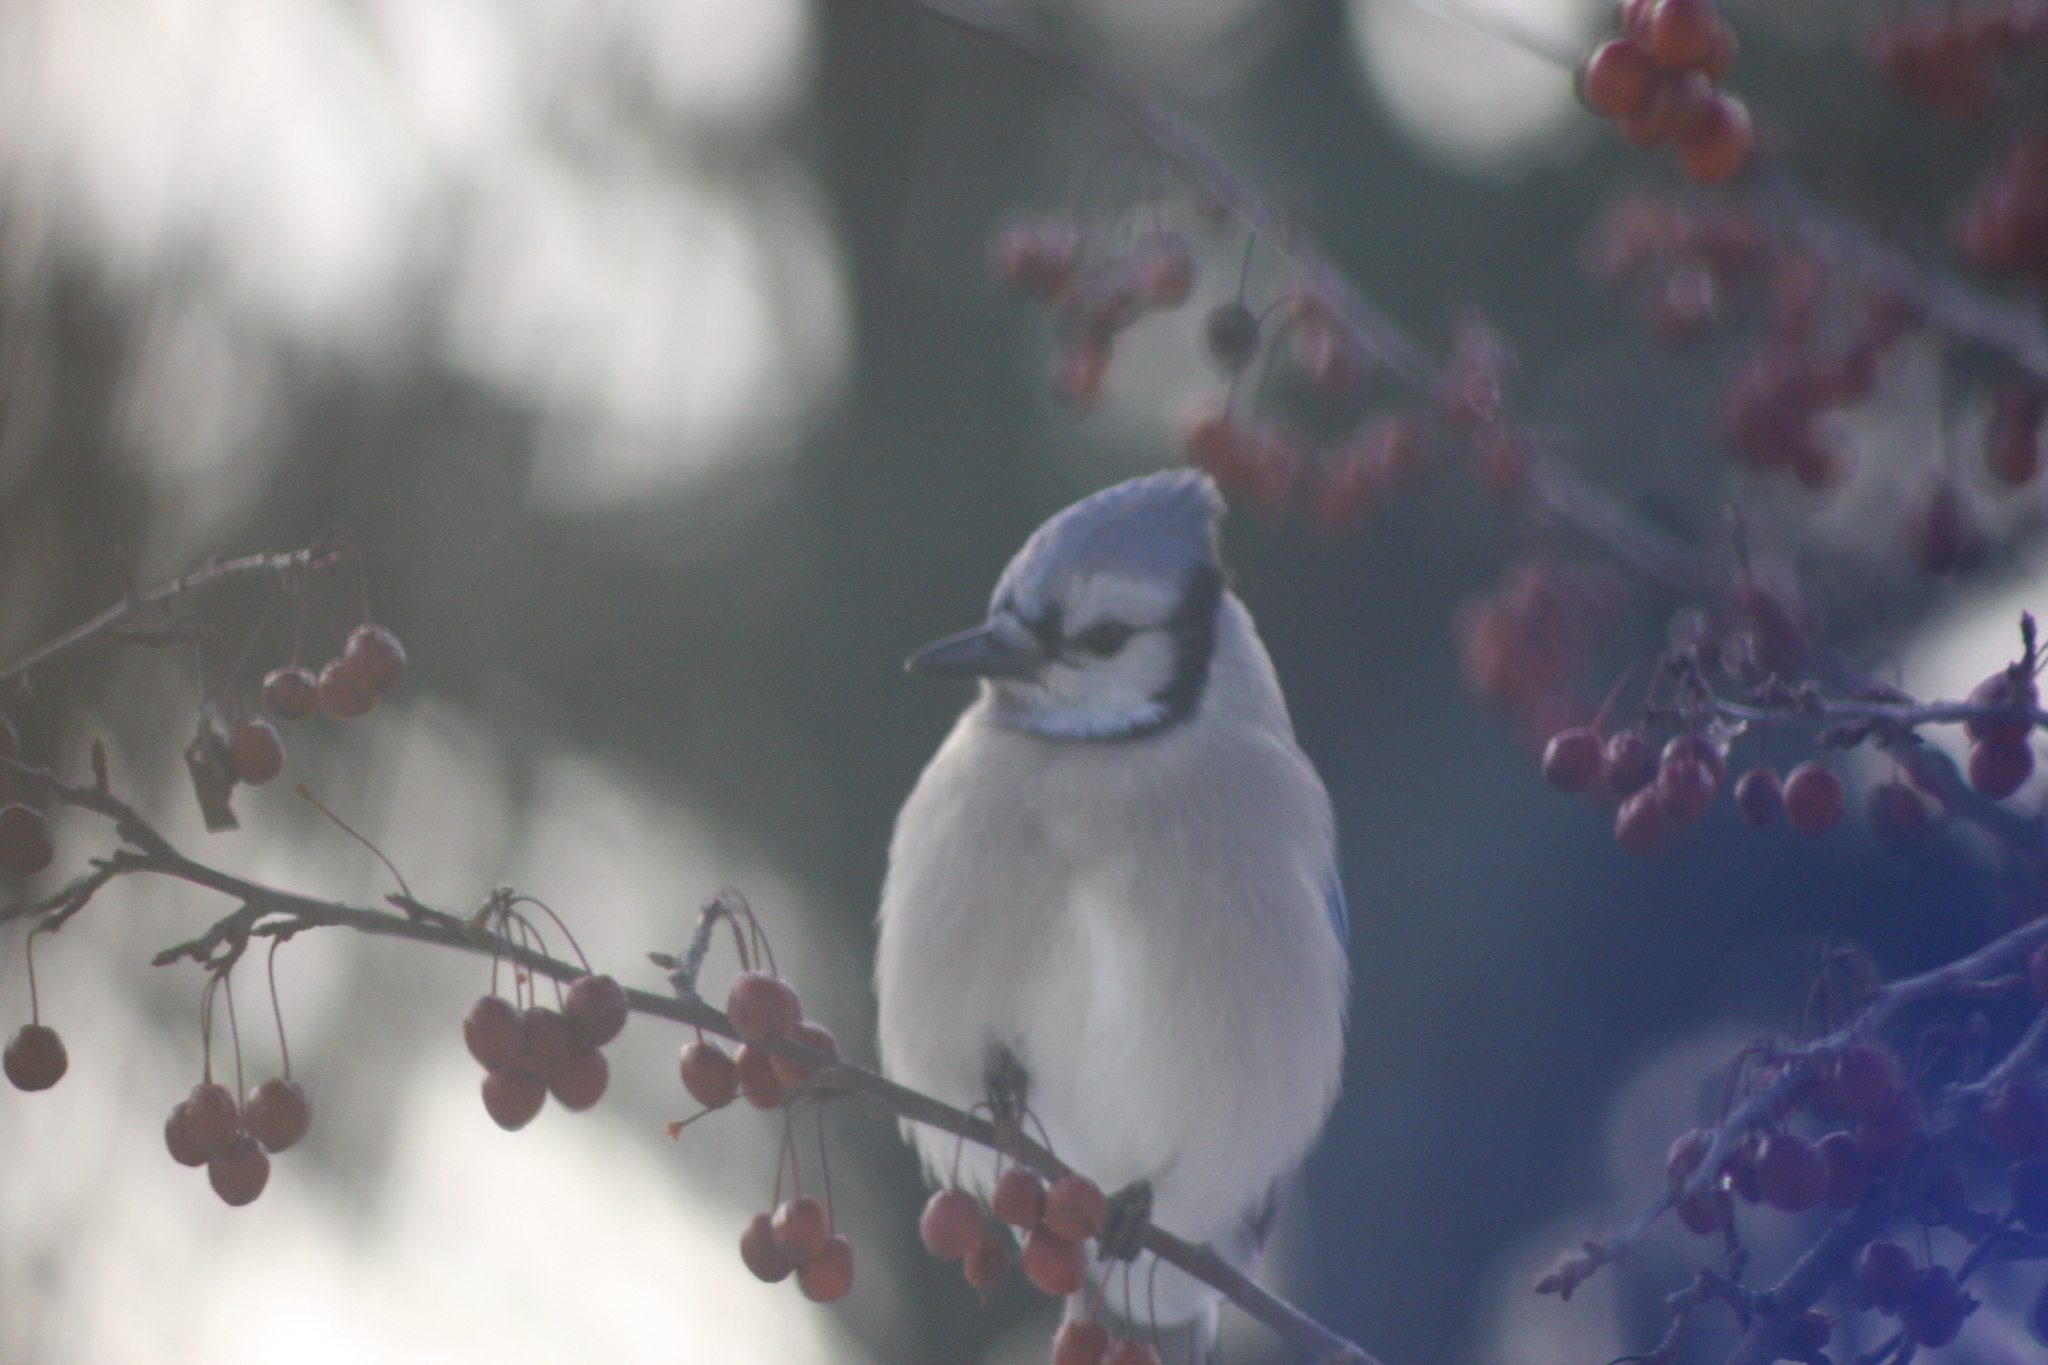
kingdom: Animalia
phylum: Chordata
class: Aves
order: Passeriformes
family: Corvidae
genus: Cyanocitta
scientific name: Cyanocitta cristata
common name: Blue jay
